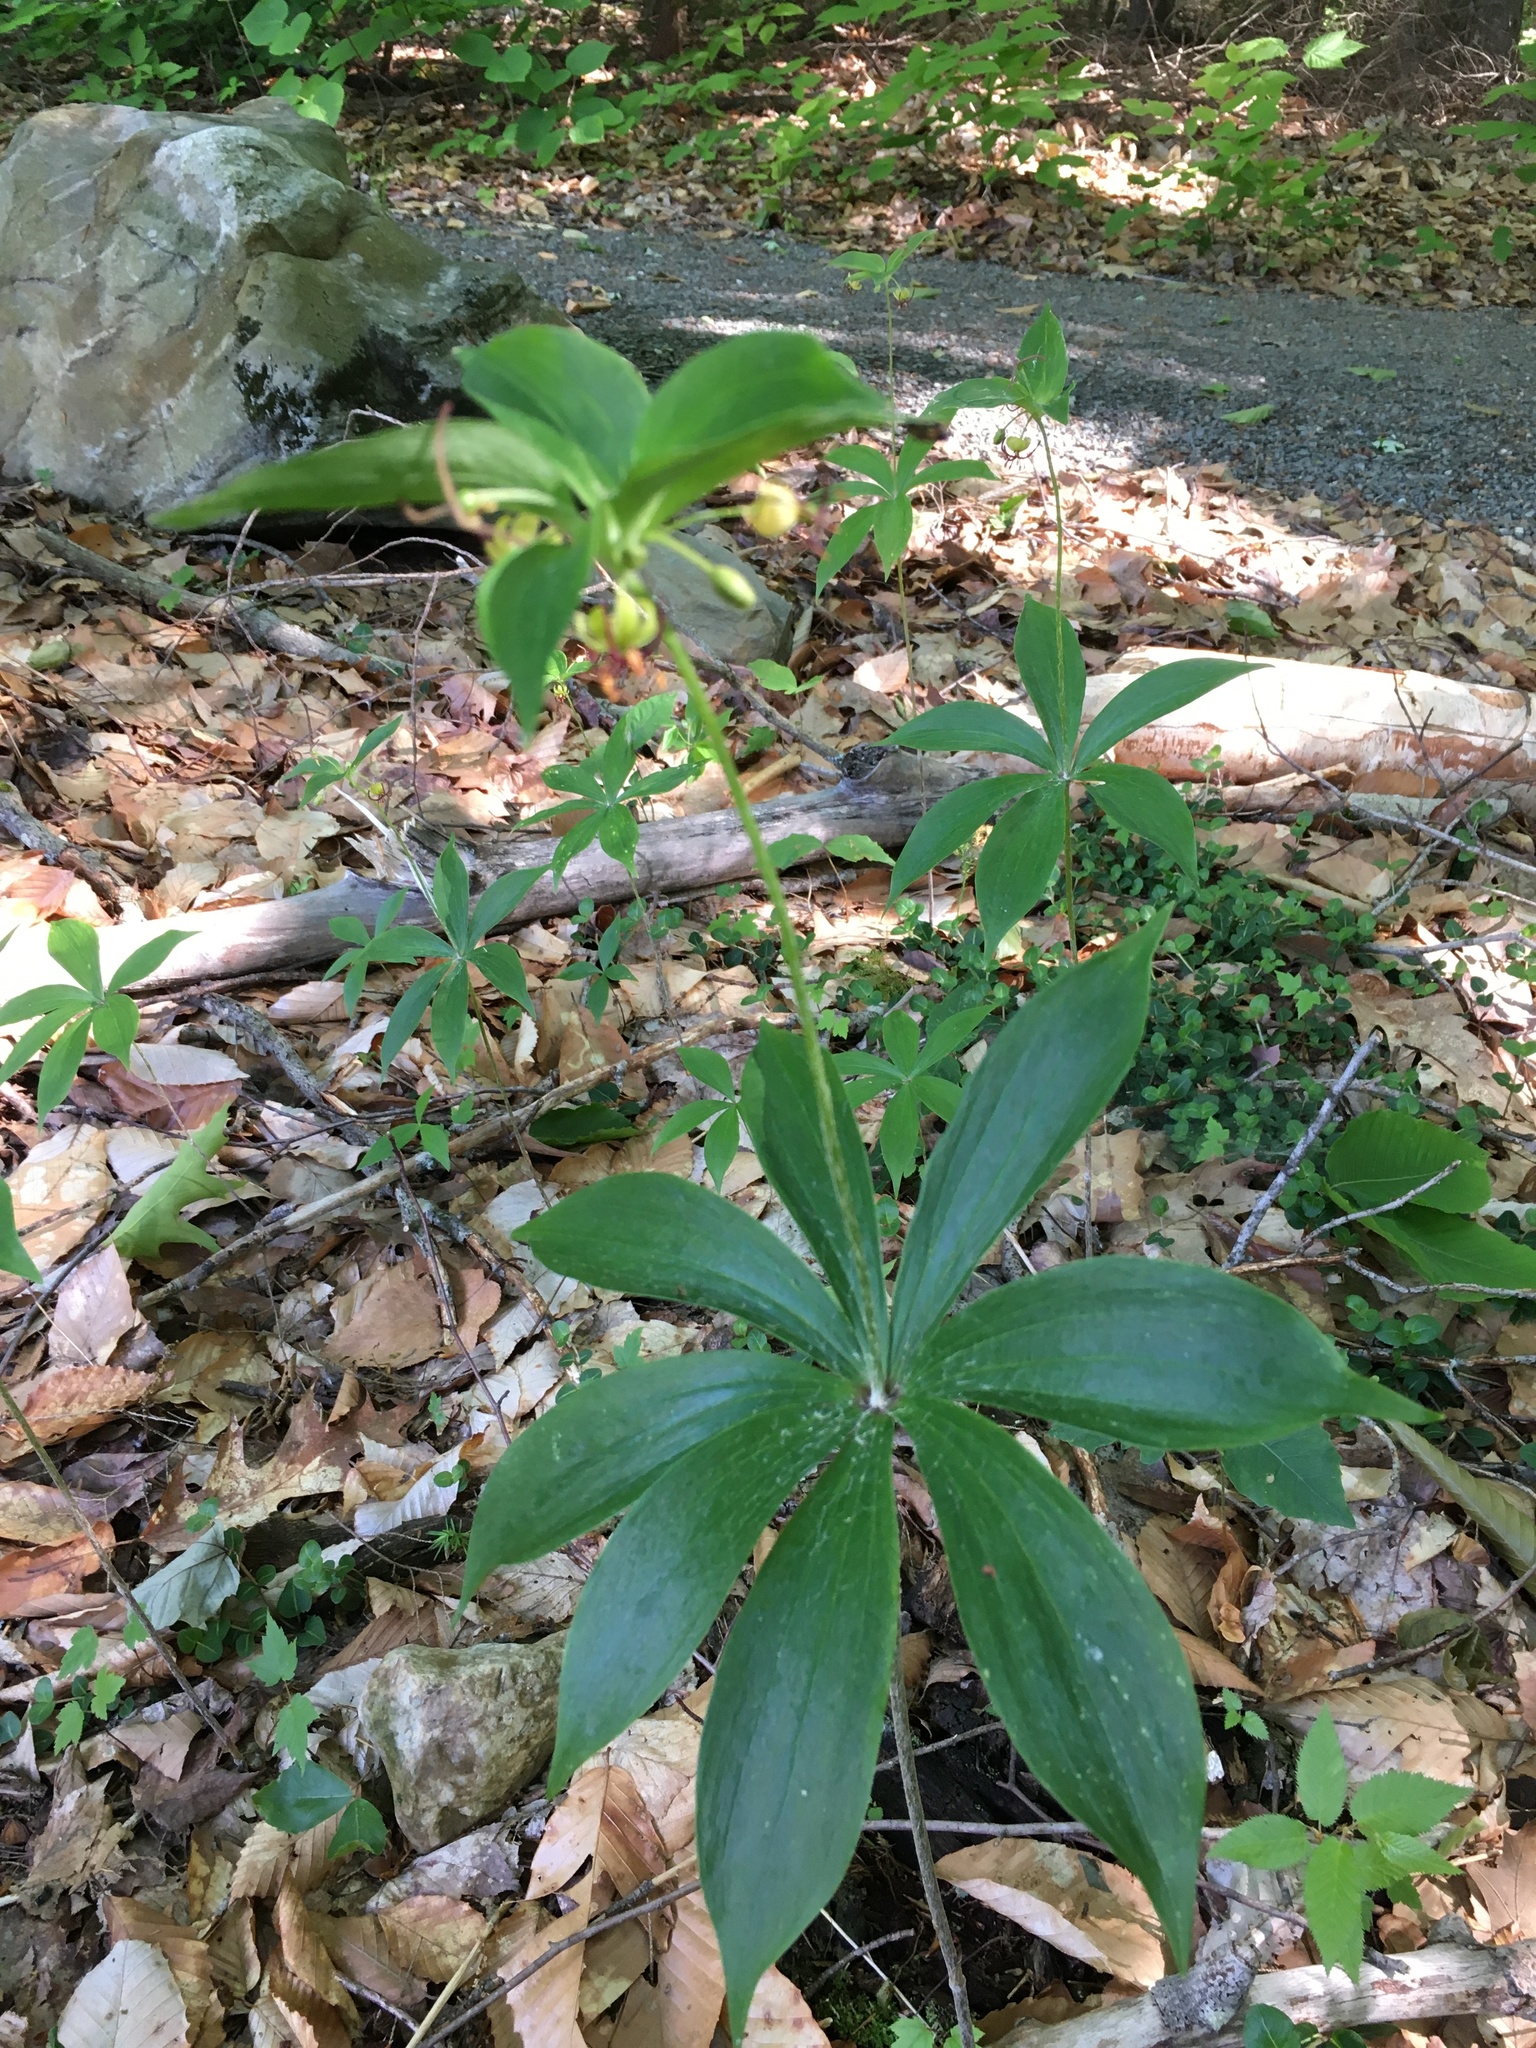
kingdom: Plantae
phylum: Tracheophyta
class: Liliopsida
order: Liliales
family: Liliaceae
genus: Medeola
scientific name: Medeola virginiana
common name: Indian cucumber-root
